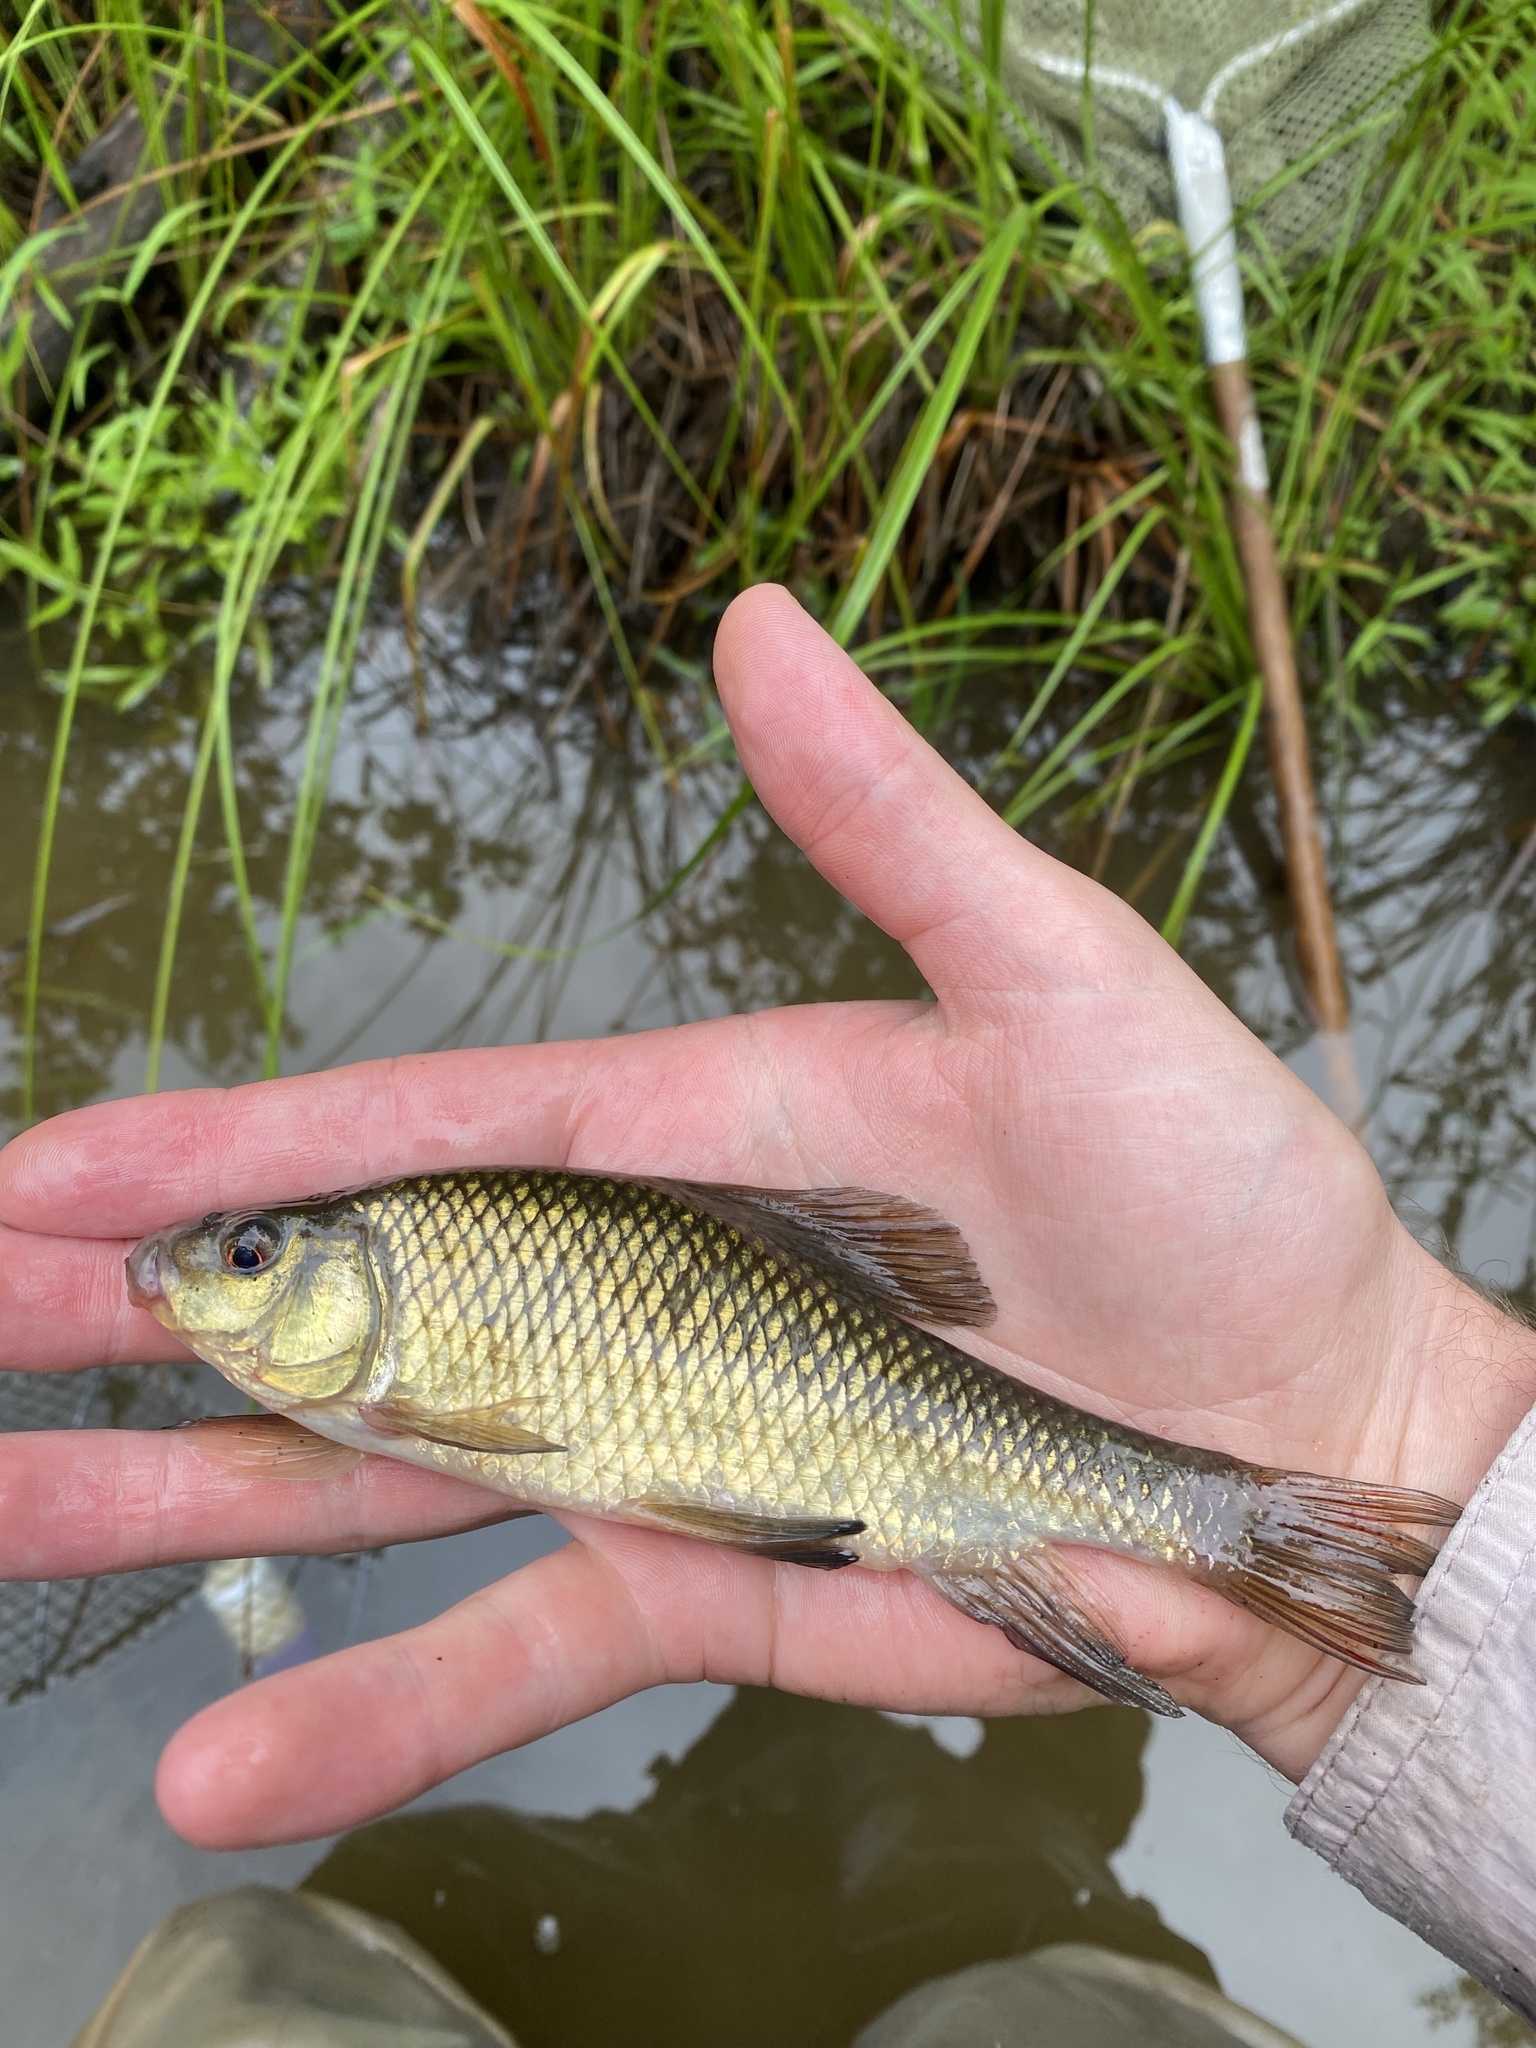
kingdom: Animalia
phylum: Chordata
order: Cypriniformes
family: Catostomidae
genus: Erimyzon
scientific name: Erimyzon sucetta
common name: Lake chubsucker
